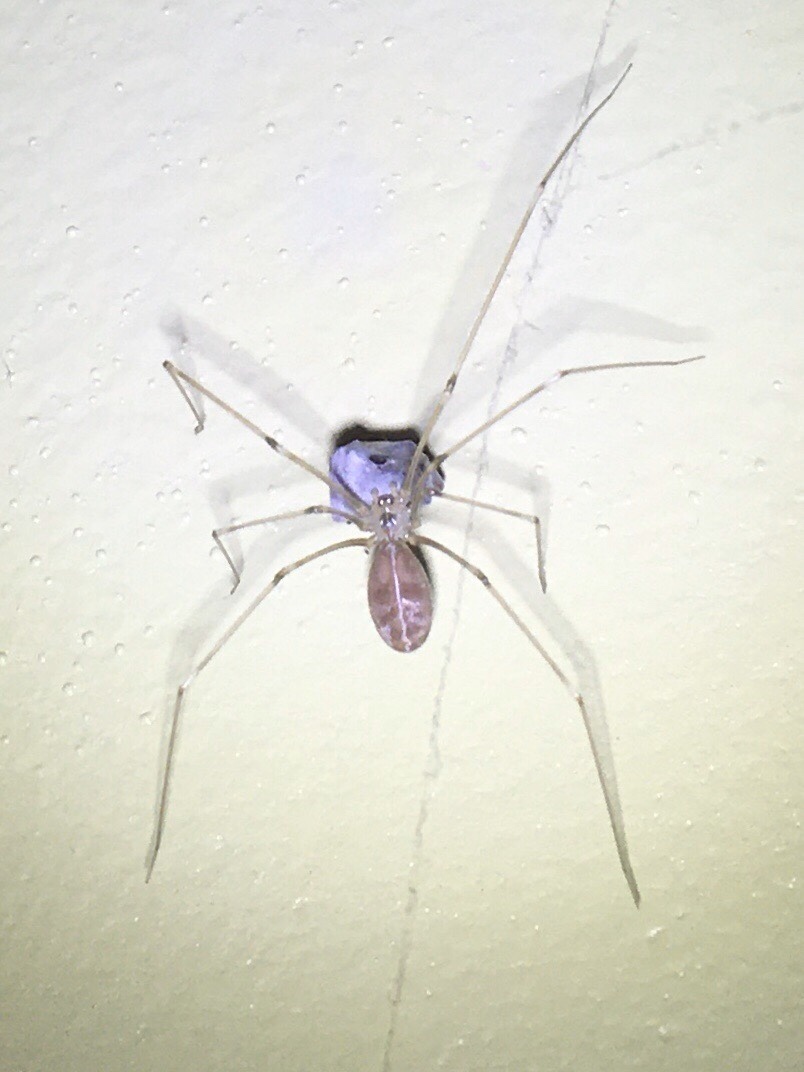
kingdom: Animalia
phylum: Arthropoda
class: Arachnida
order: Araneae
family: Pholcidae
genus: Pholcus
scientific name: Pholcus phalangioides
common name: Longbodied cellar spider
